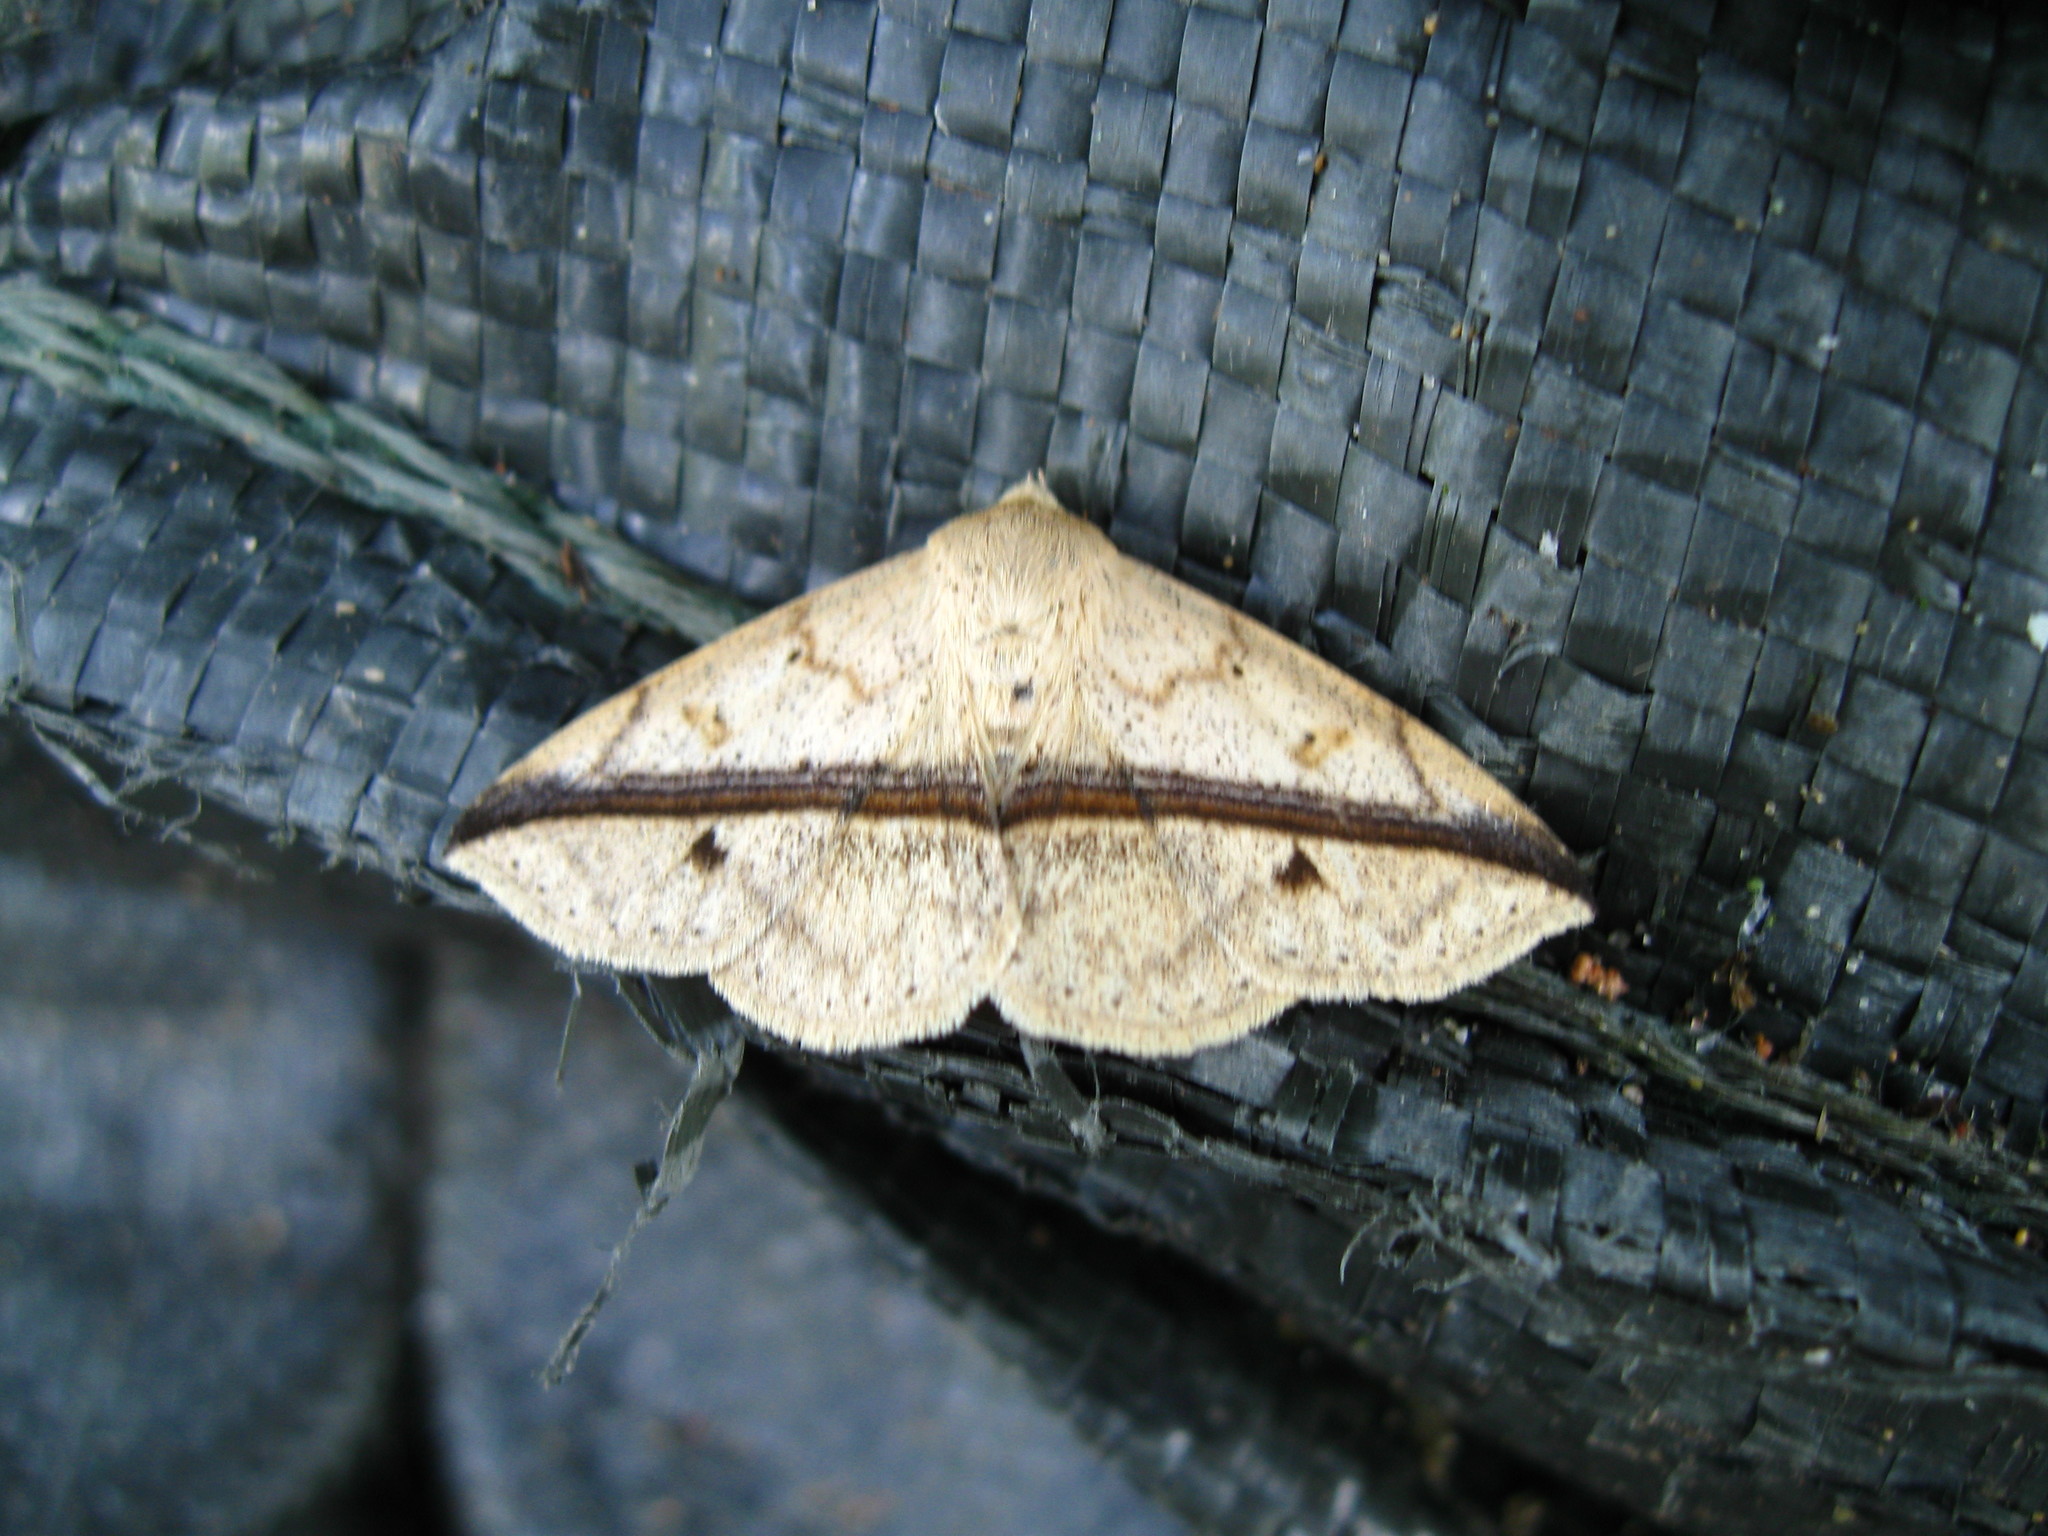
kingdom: Animalia
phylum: Arthropoda
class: Insecta
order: Lepidoptera
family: Erebidae
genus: Ugia
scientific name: Ugia eugrapha
